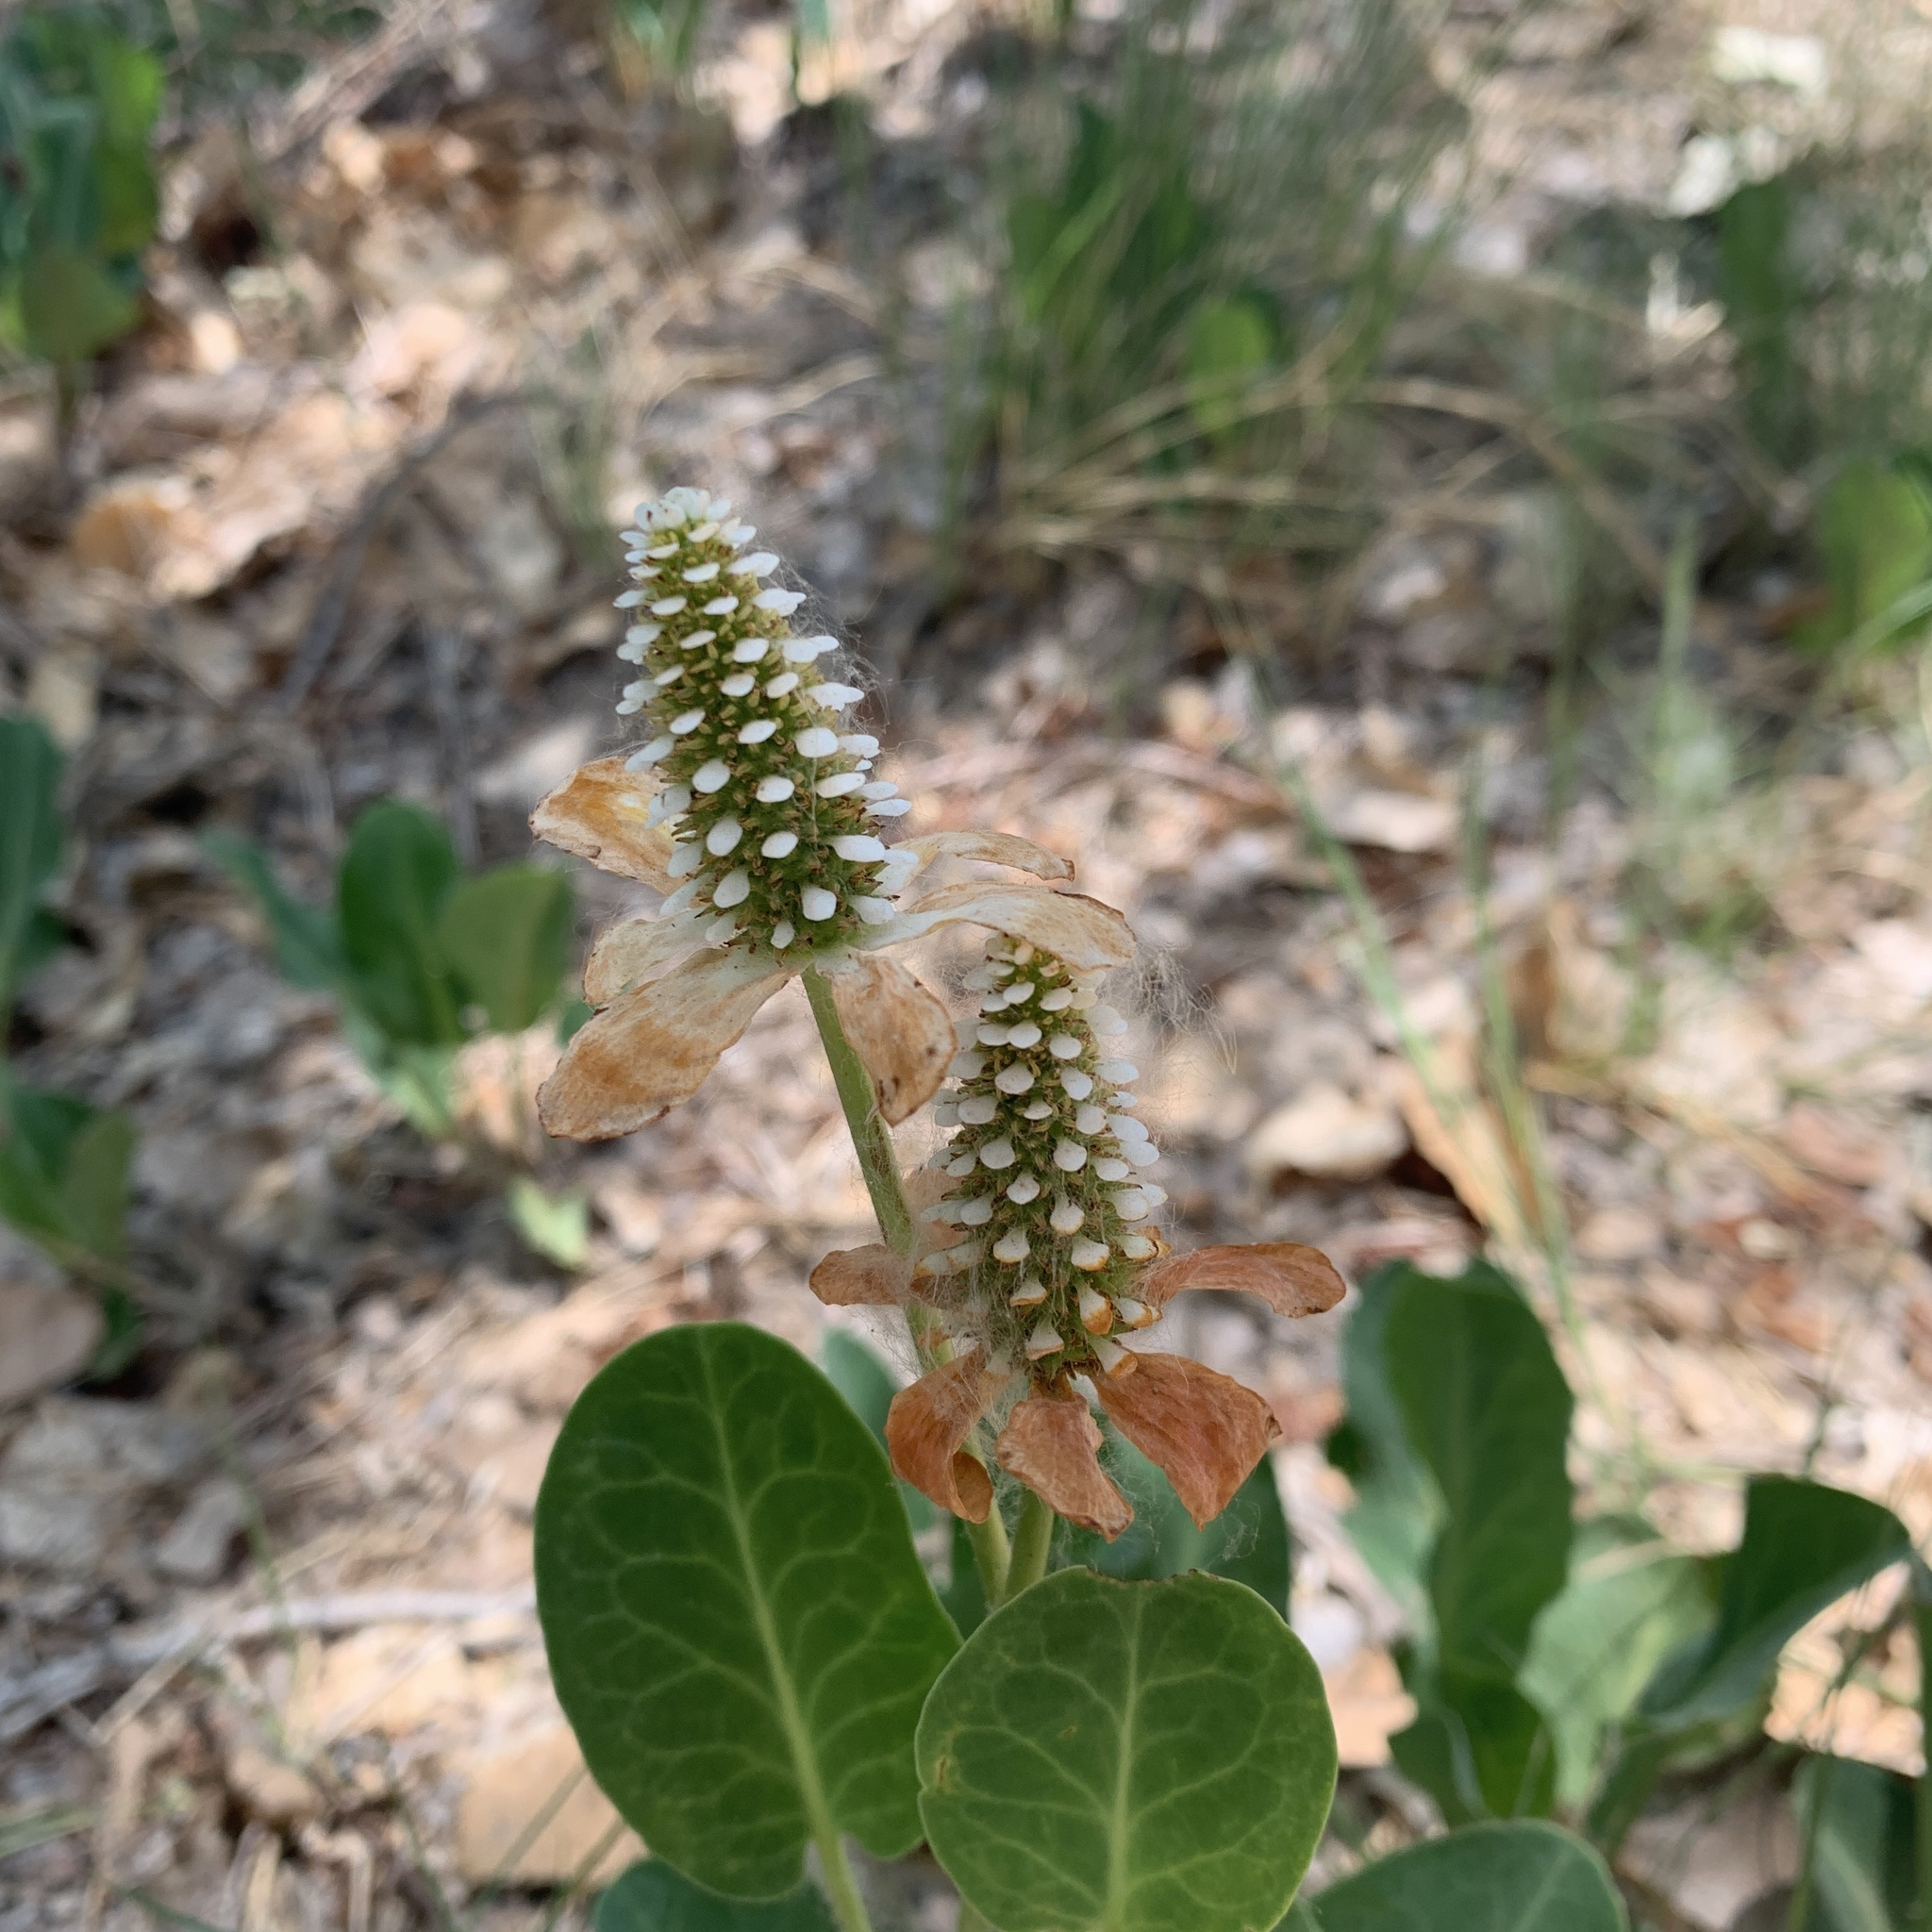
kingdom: Plantae
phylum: Tracheophyta
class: Magnoliopsida
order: Piperales
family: Saururaceae
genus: Anemopsis
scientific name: Anemopsis californica
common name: Apache-beads
